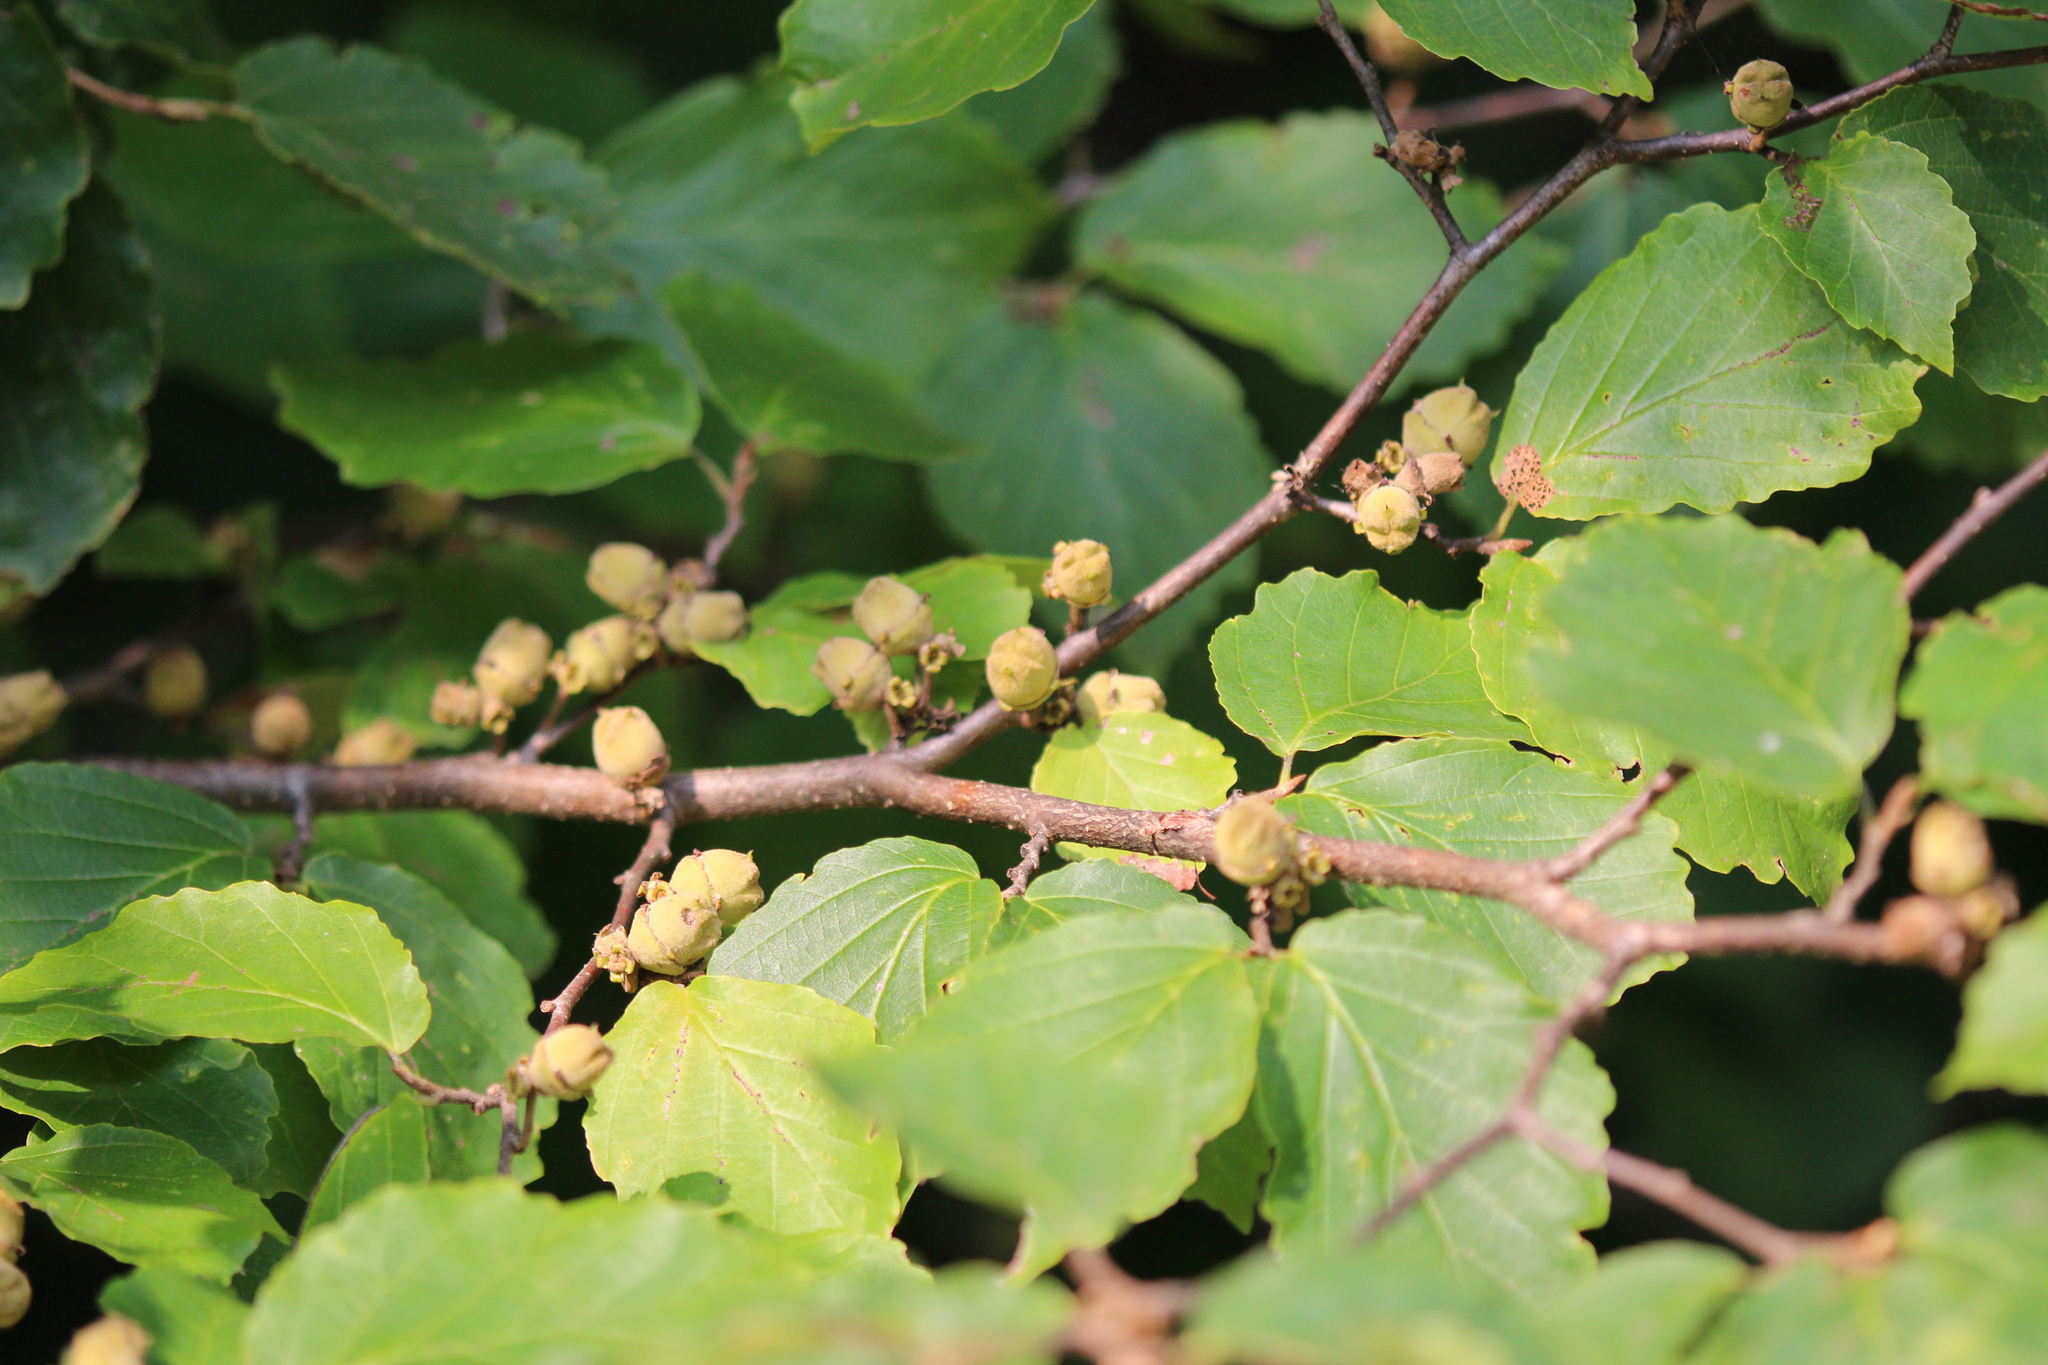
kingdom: Plantae
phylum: Tracheophyta
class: Magnoliopsida
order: Saxifragales
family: Hamamelidaceae
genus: Hamamelis
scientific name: Hamamelis virginiana
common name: Witch-hazel
